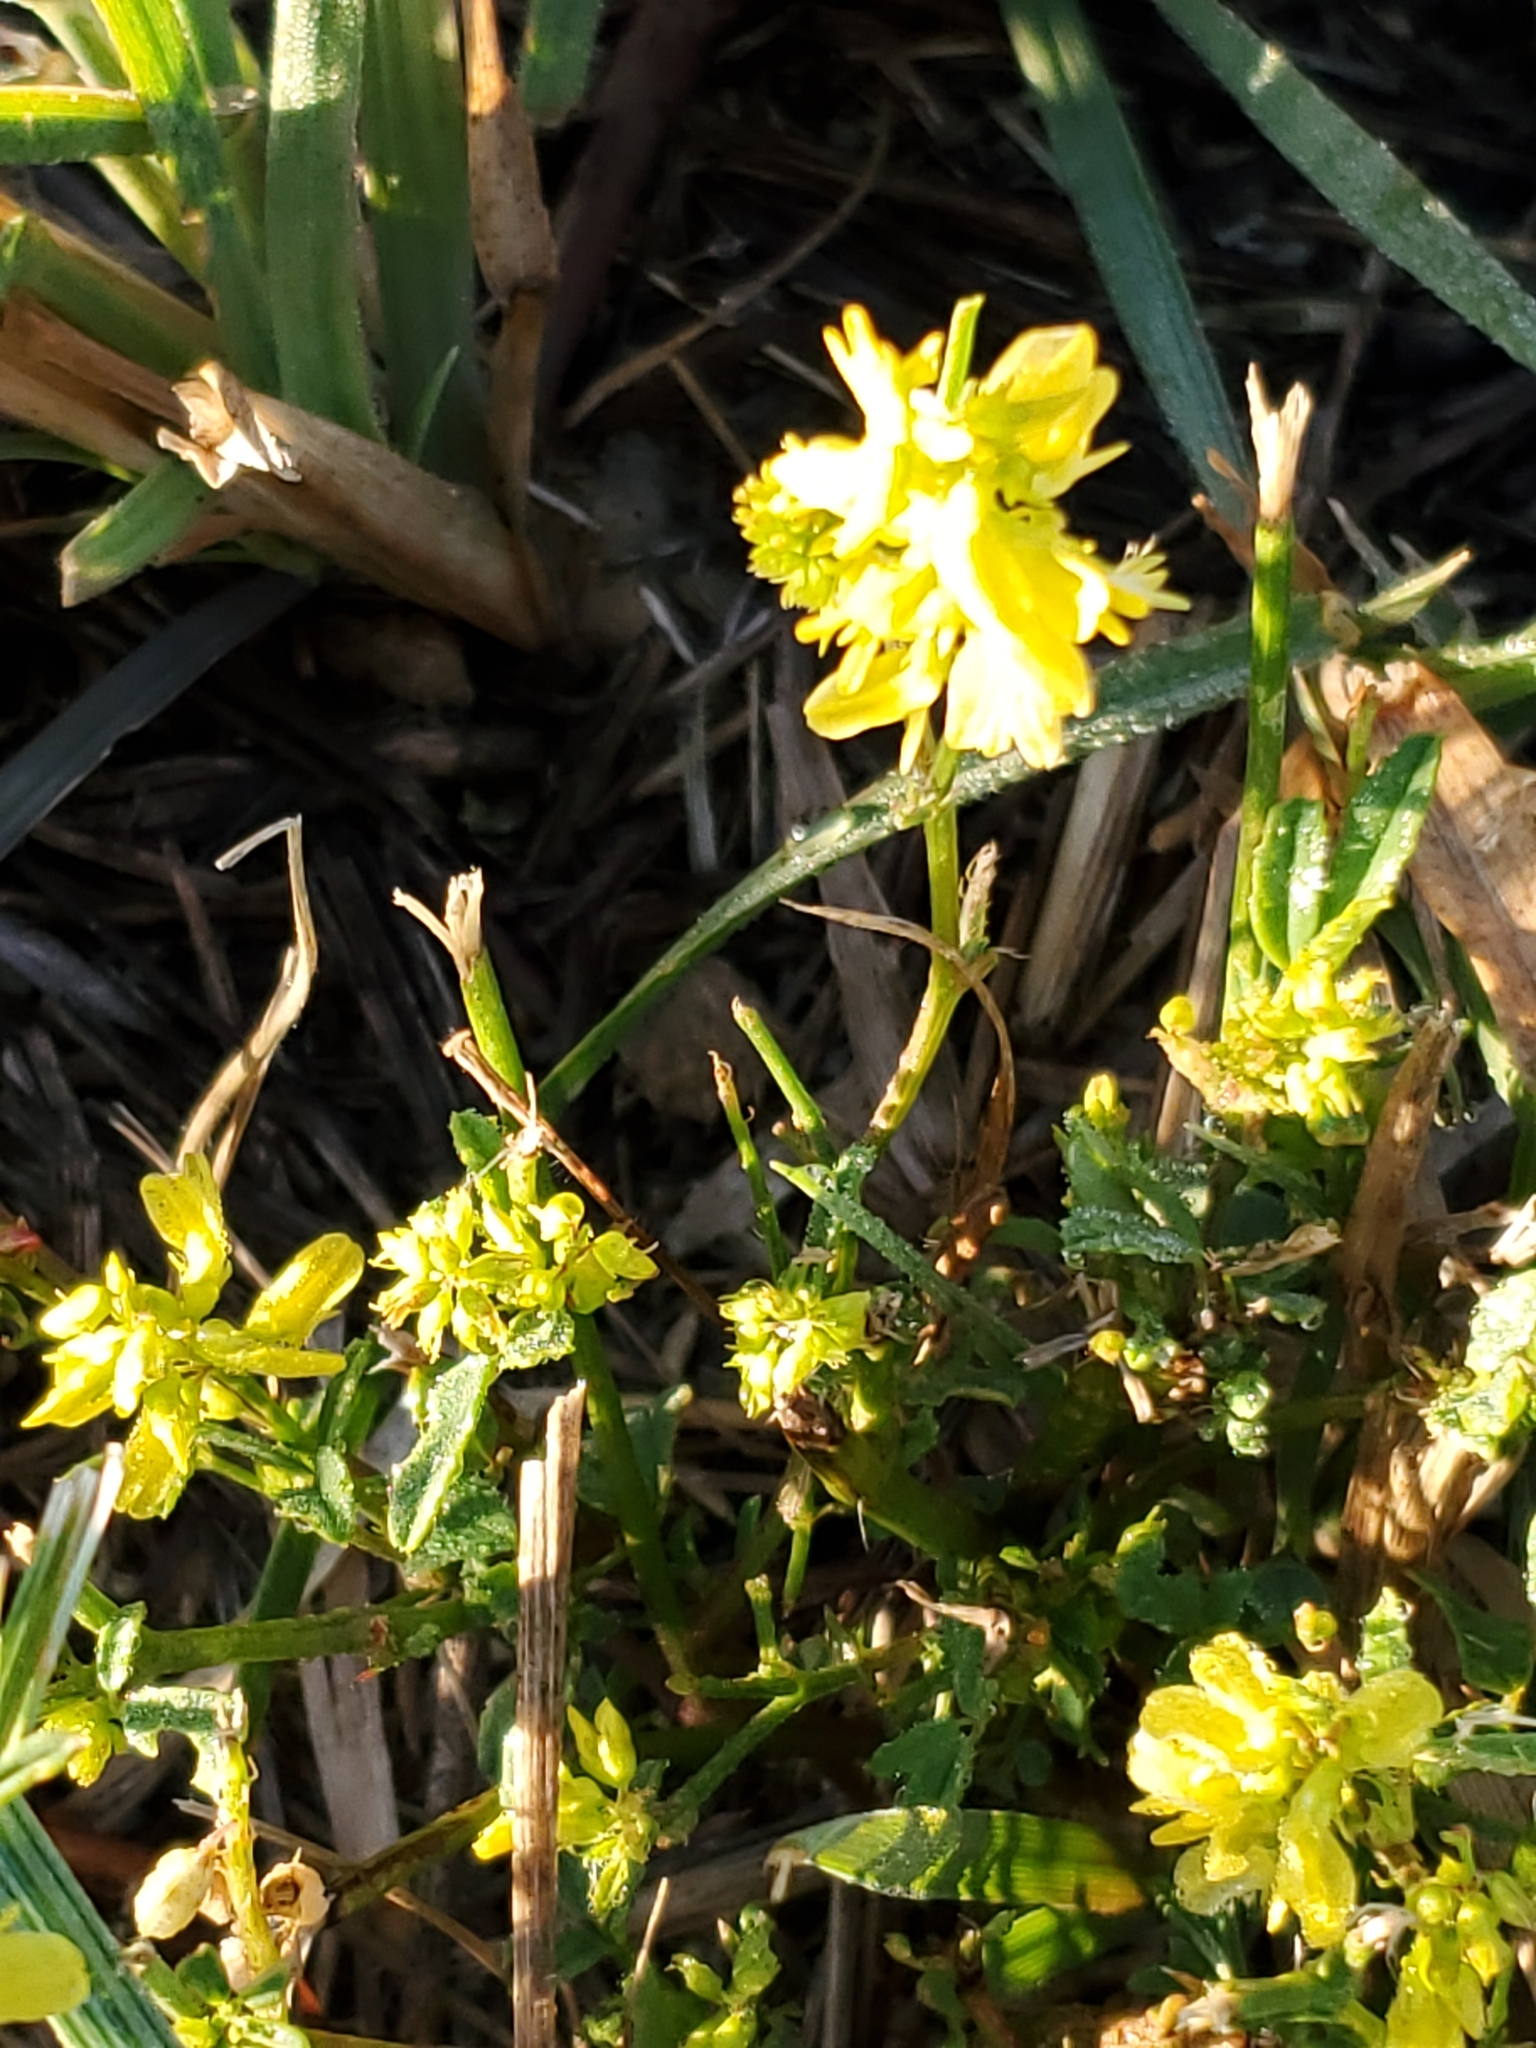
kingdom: Plantae
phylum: Tracheophyta
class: Magnoliopsida
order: Fabales
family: Fabaceae
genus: Melilotus
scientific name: Melilotus officinalis
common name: Sweetclover
